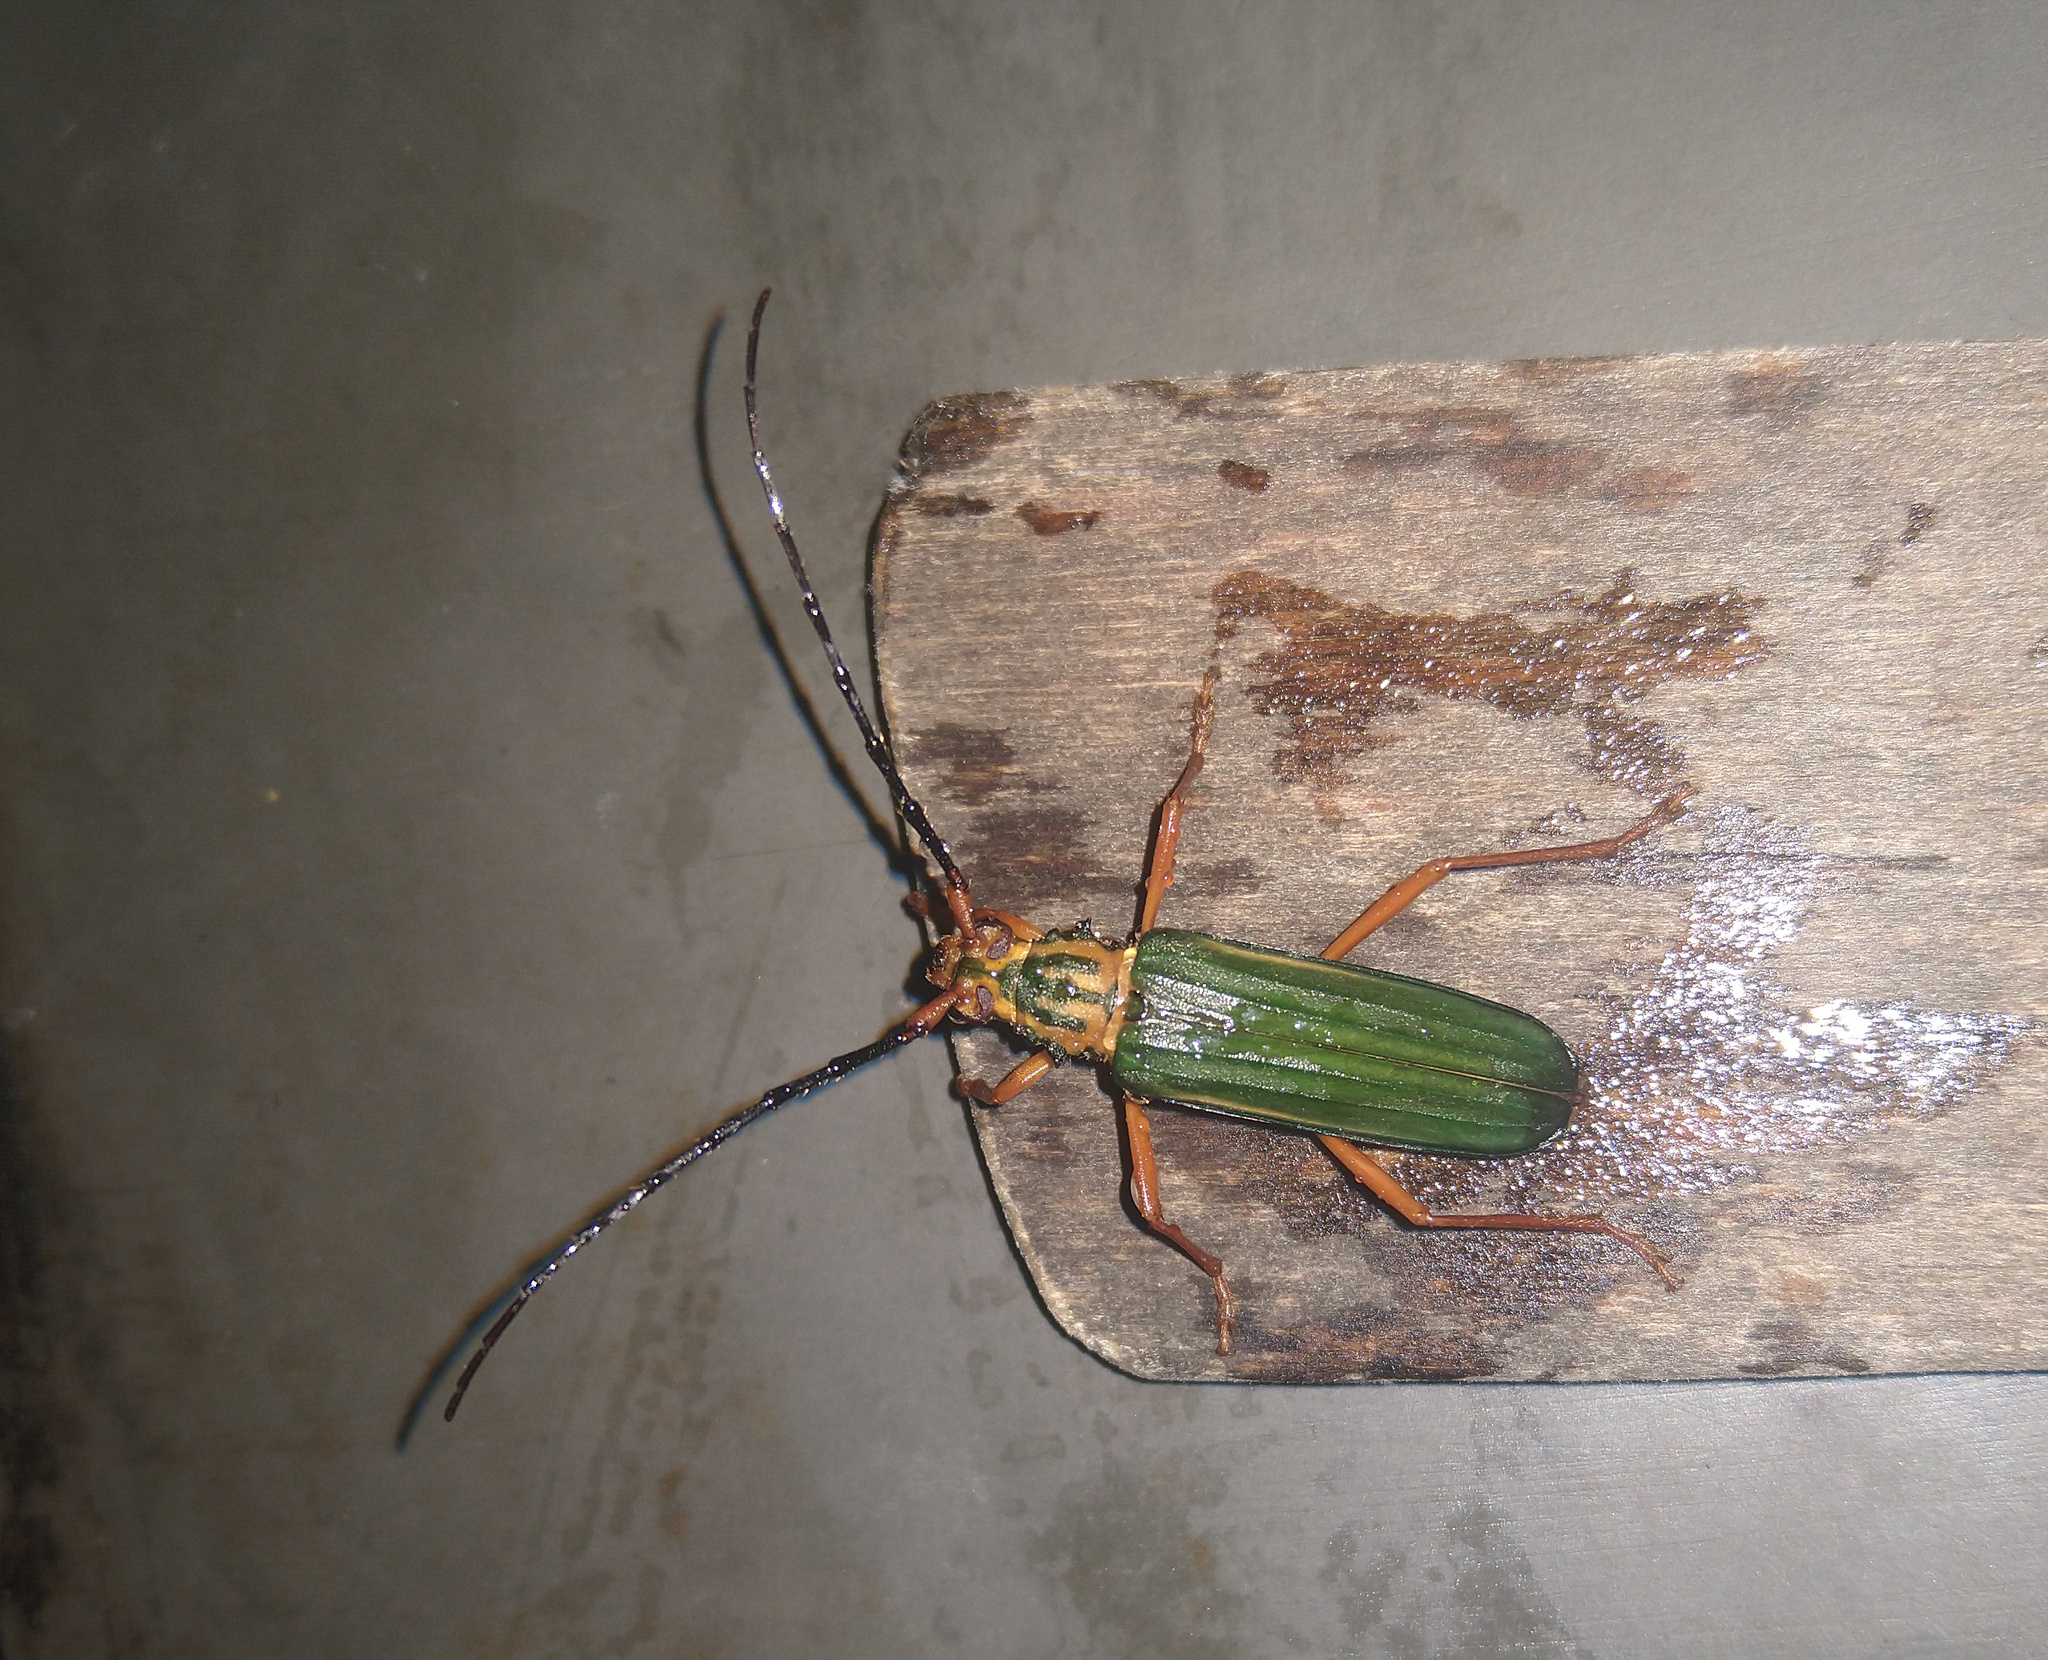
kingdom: Animalia
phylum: Arthropoda
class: Insecta
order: Coleoptera
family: Cerambycidae
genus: Chlorida
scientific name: Chlorida festiva
